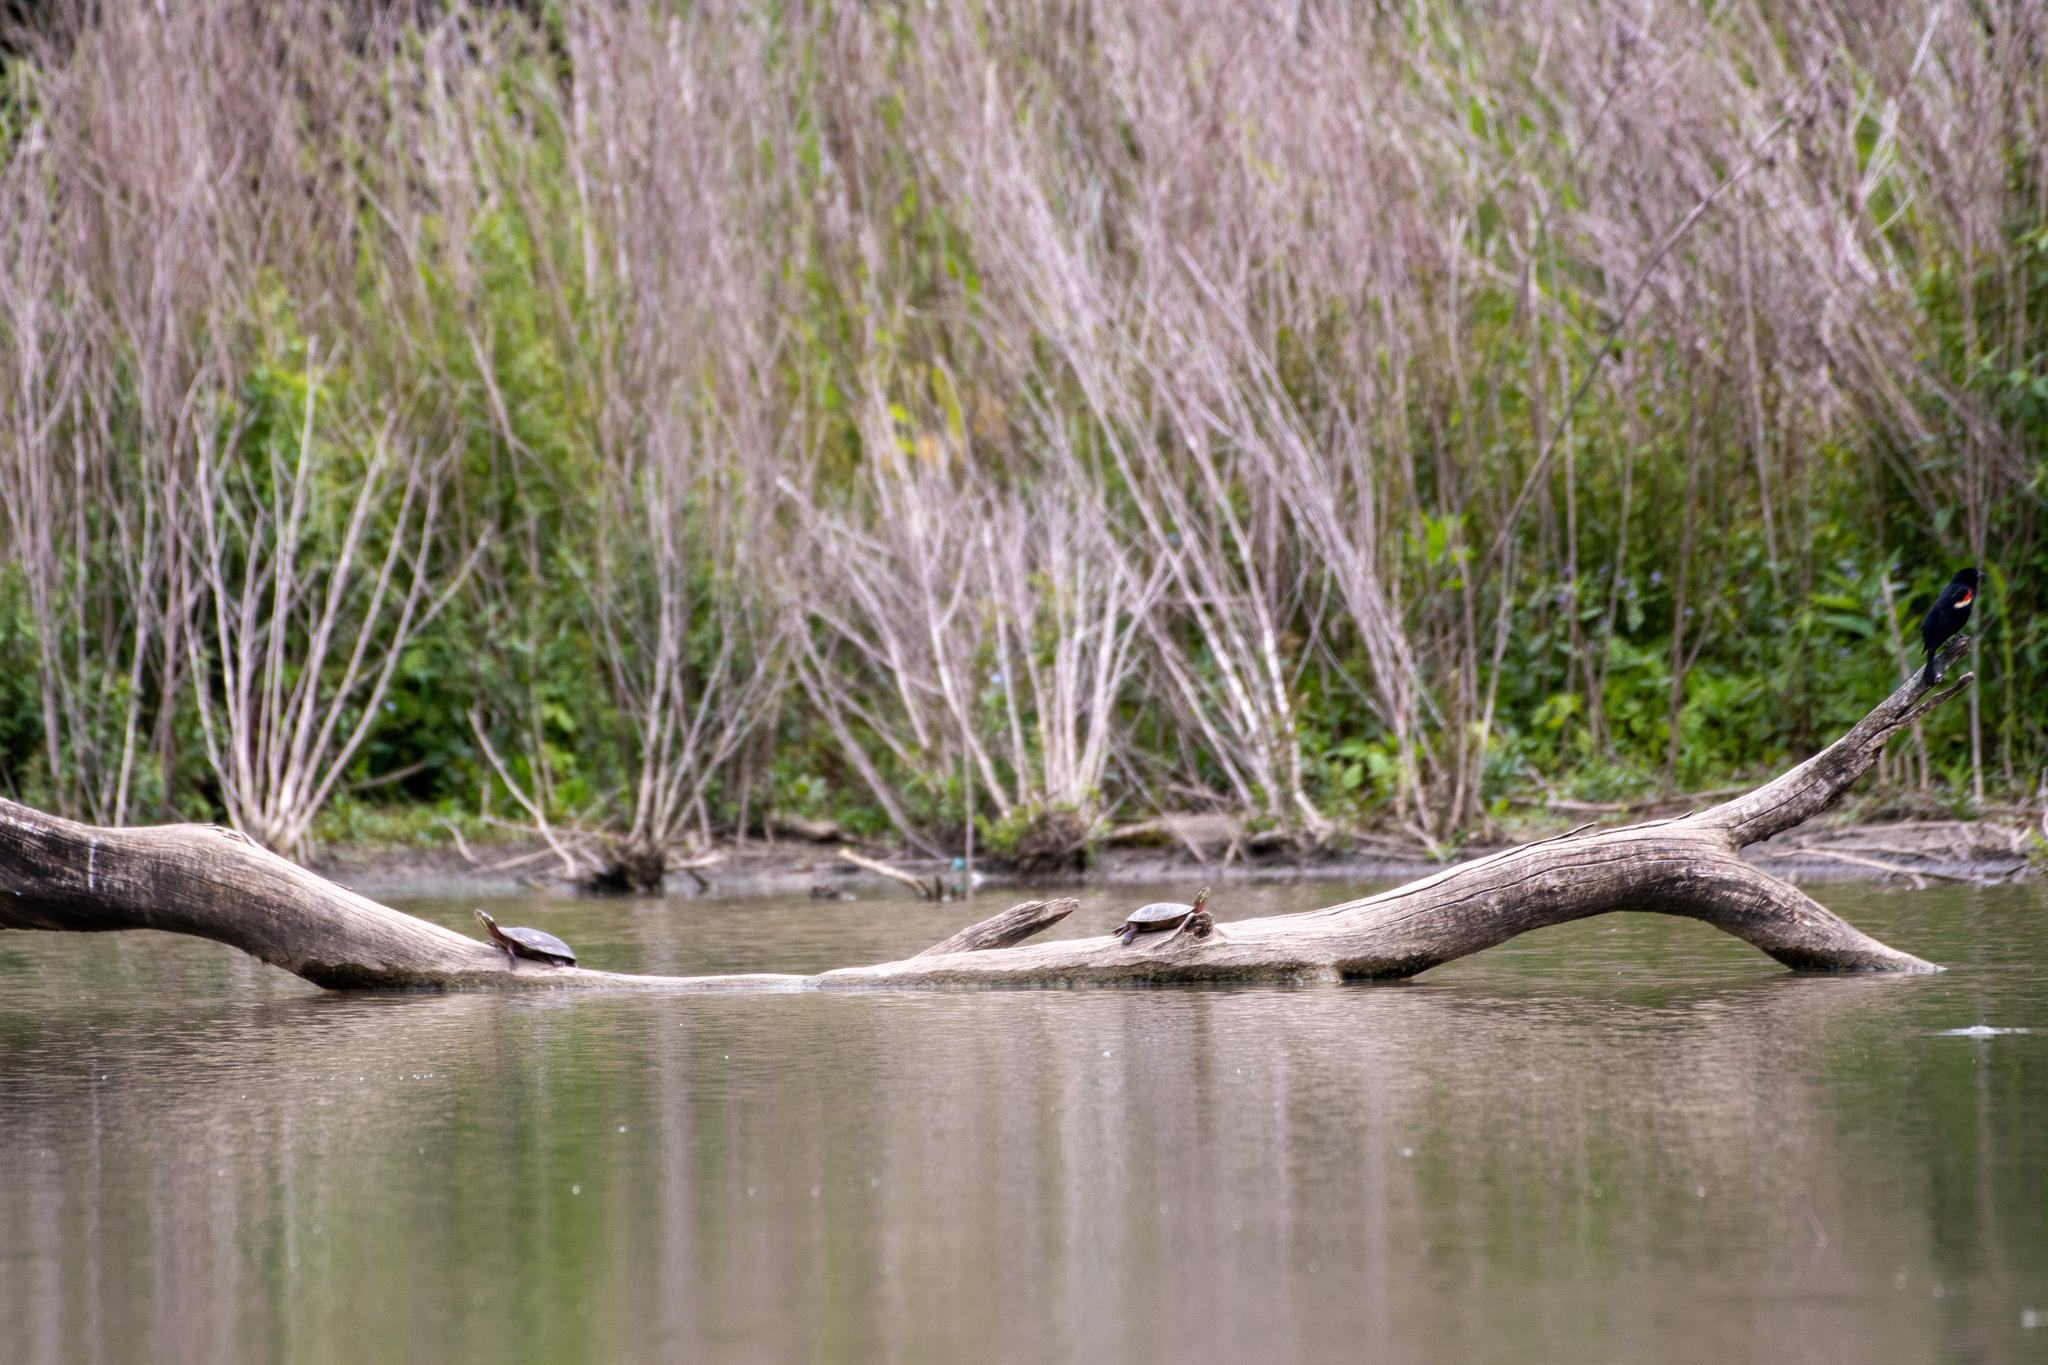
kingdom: Animalia
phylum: Chordata
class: Aves
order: Passeriformes
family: Icteridae
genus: Agelaius
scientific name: Agelaius phoeniceus
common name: Red-winged blackbird
